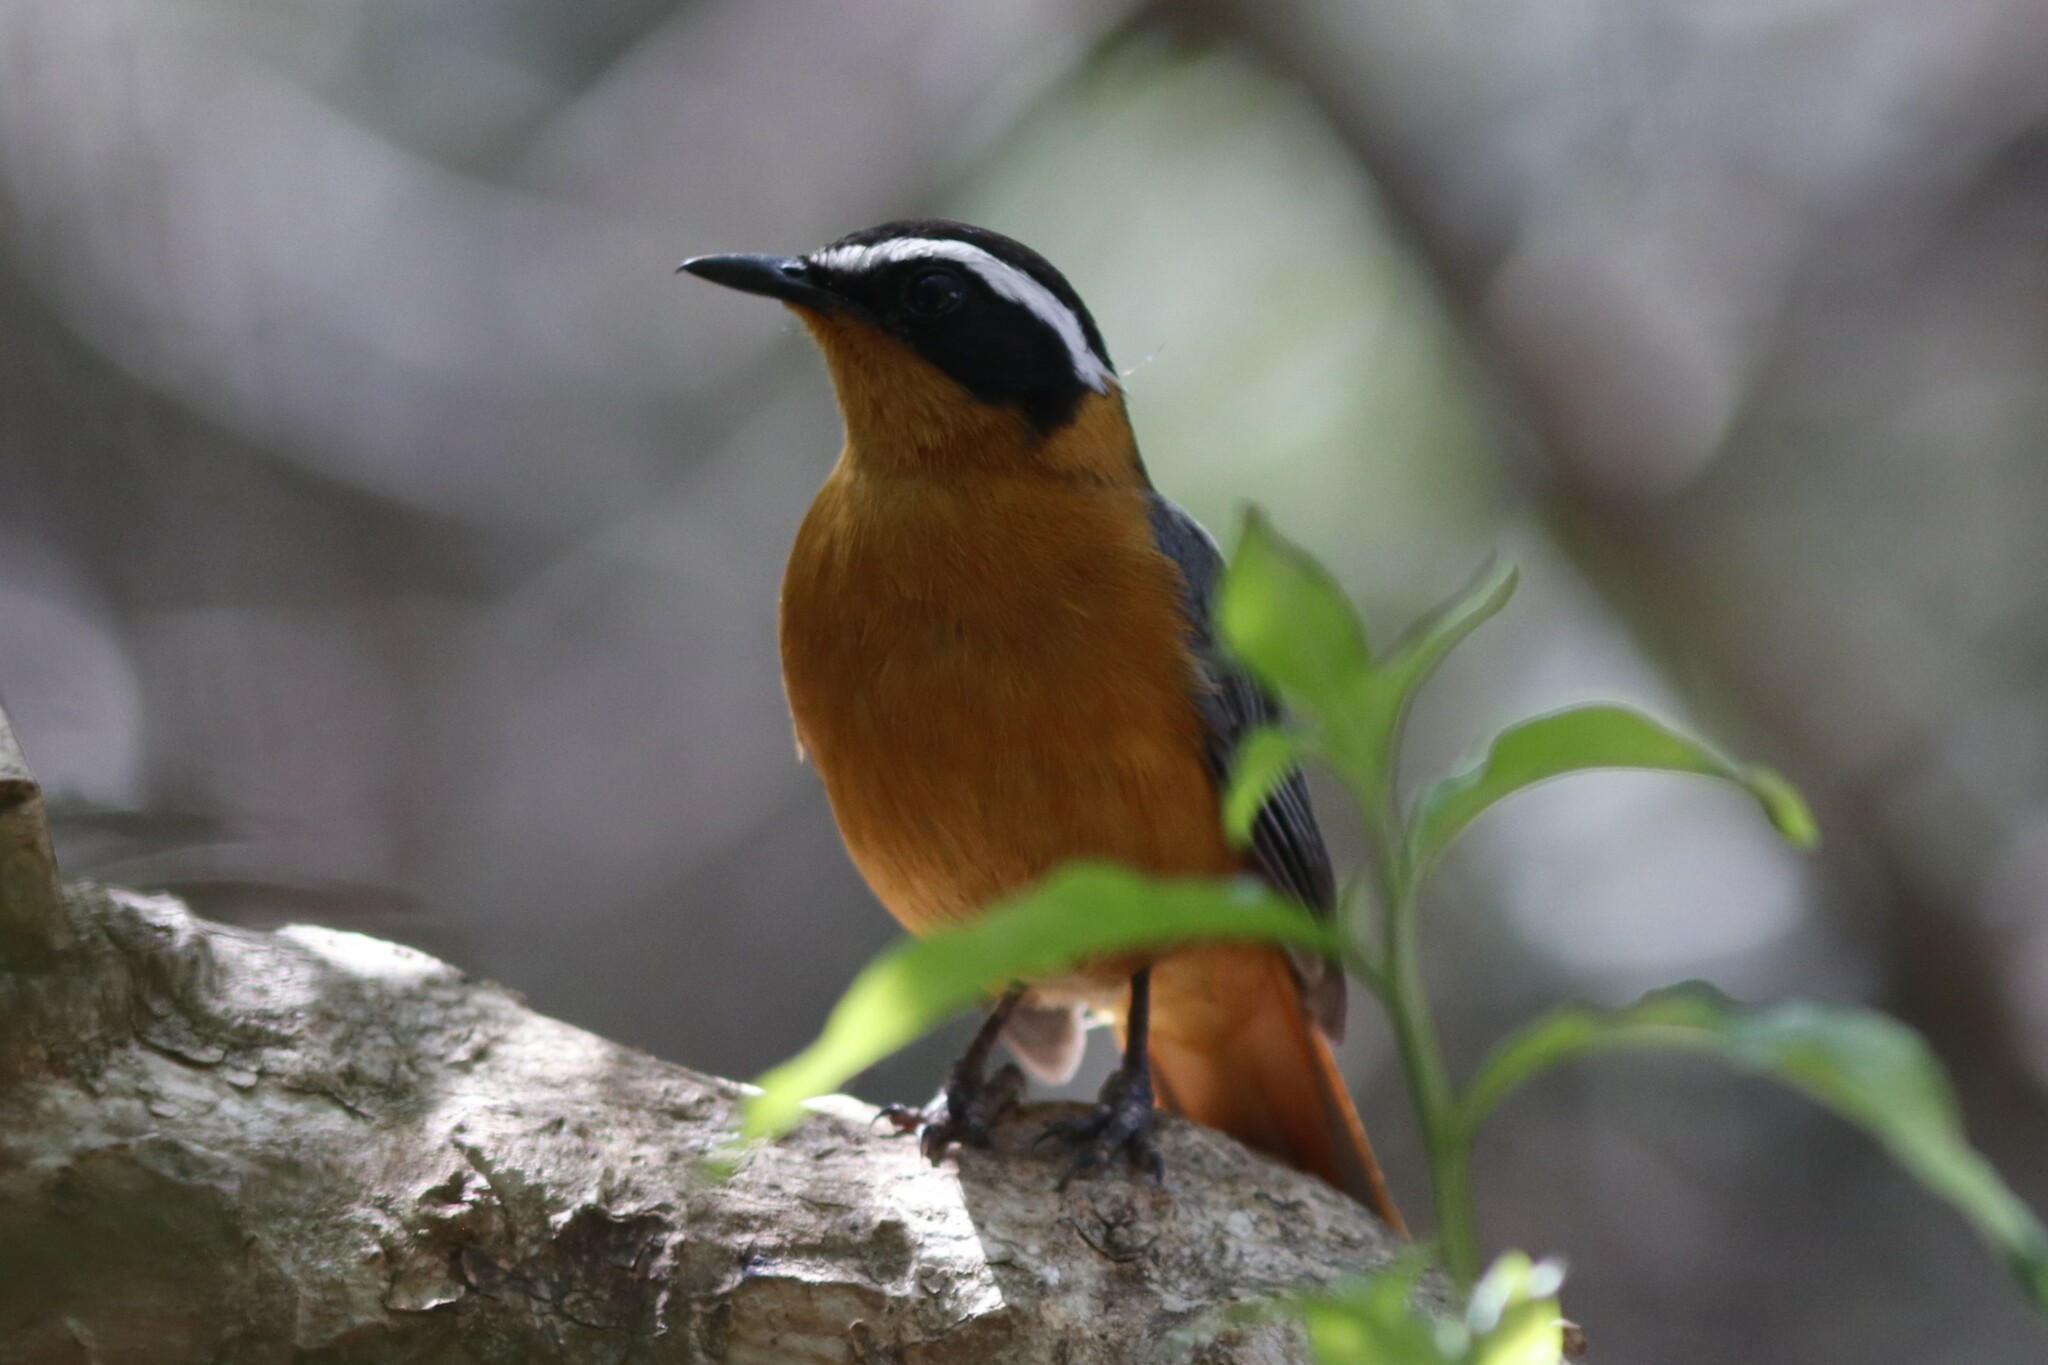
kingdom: Animalia
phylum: Chordata
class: Aves
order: Passeriformes
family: Muscicapidae
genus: Cossypha
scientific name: Cossypha heuglini
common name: White-browed robin-chat
